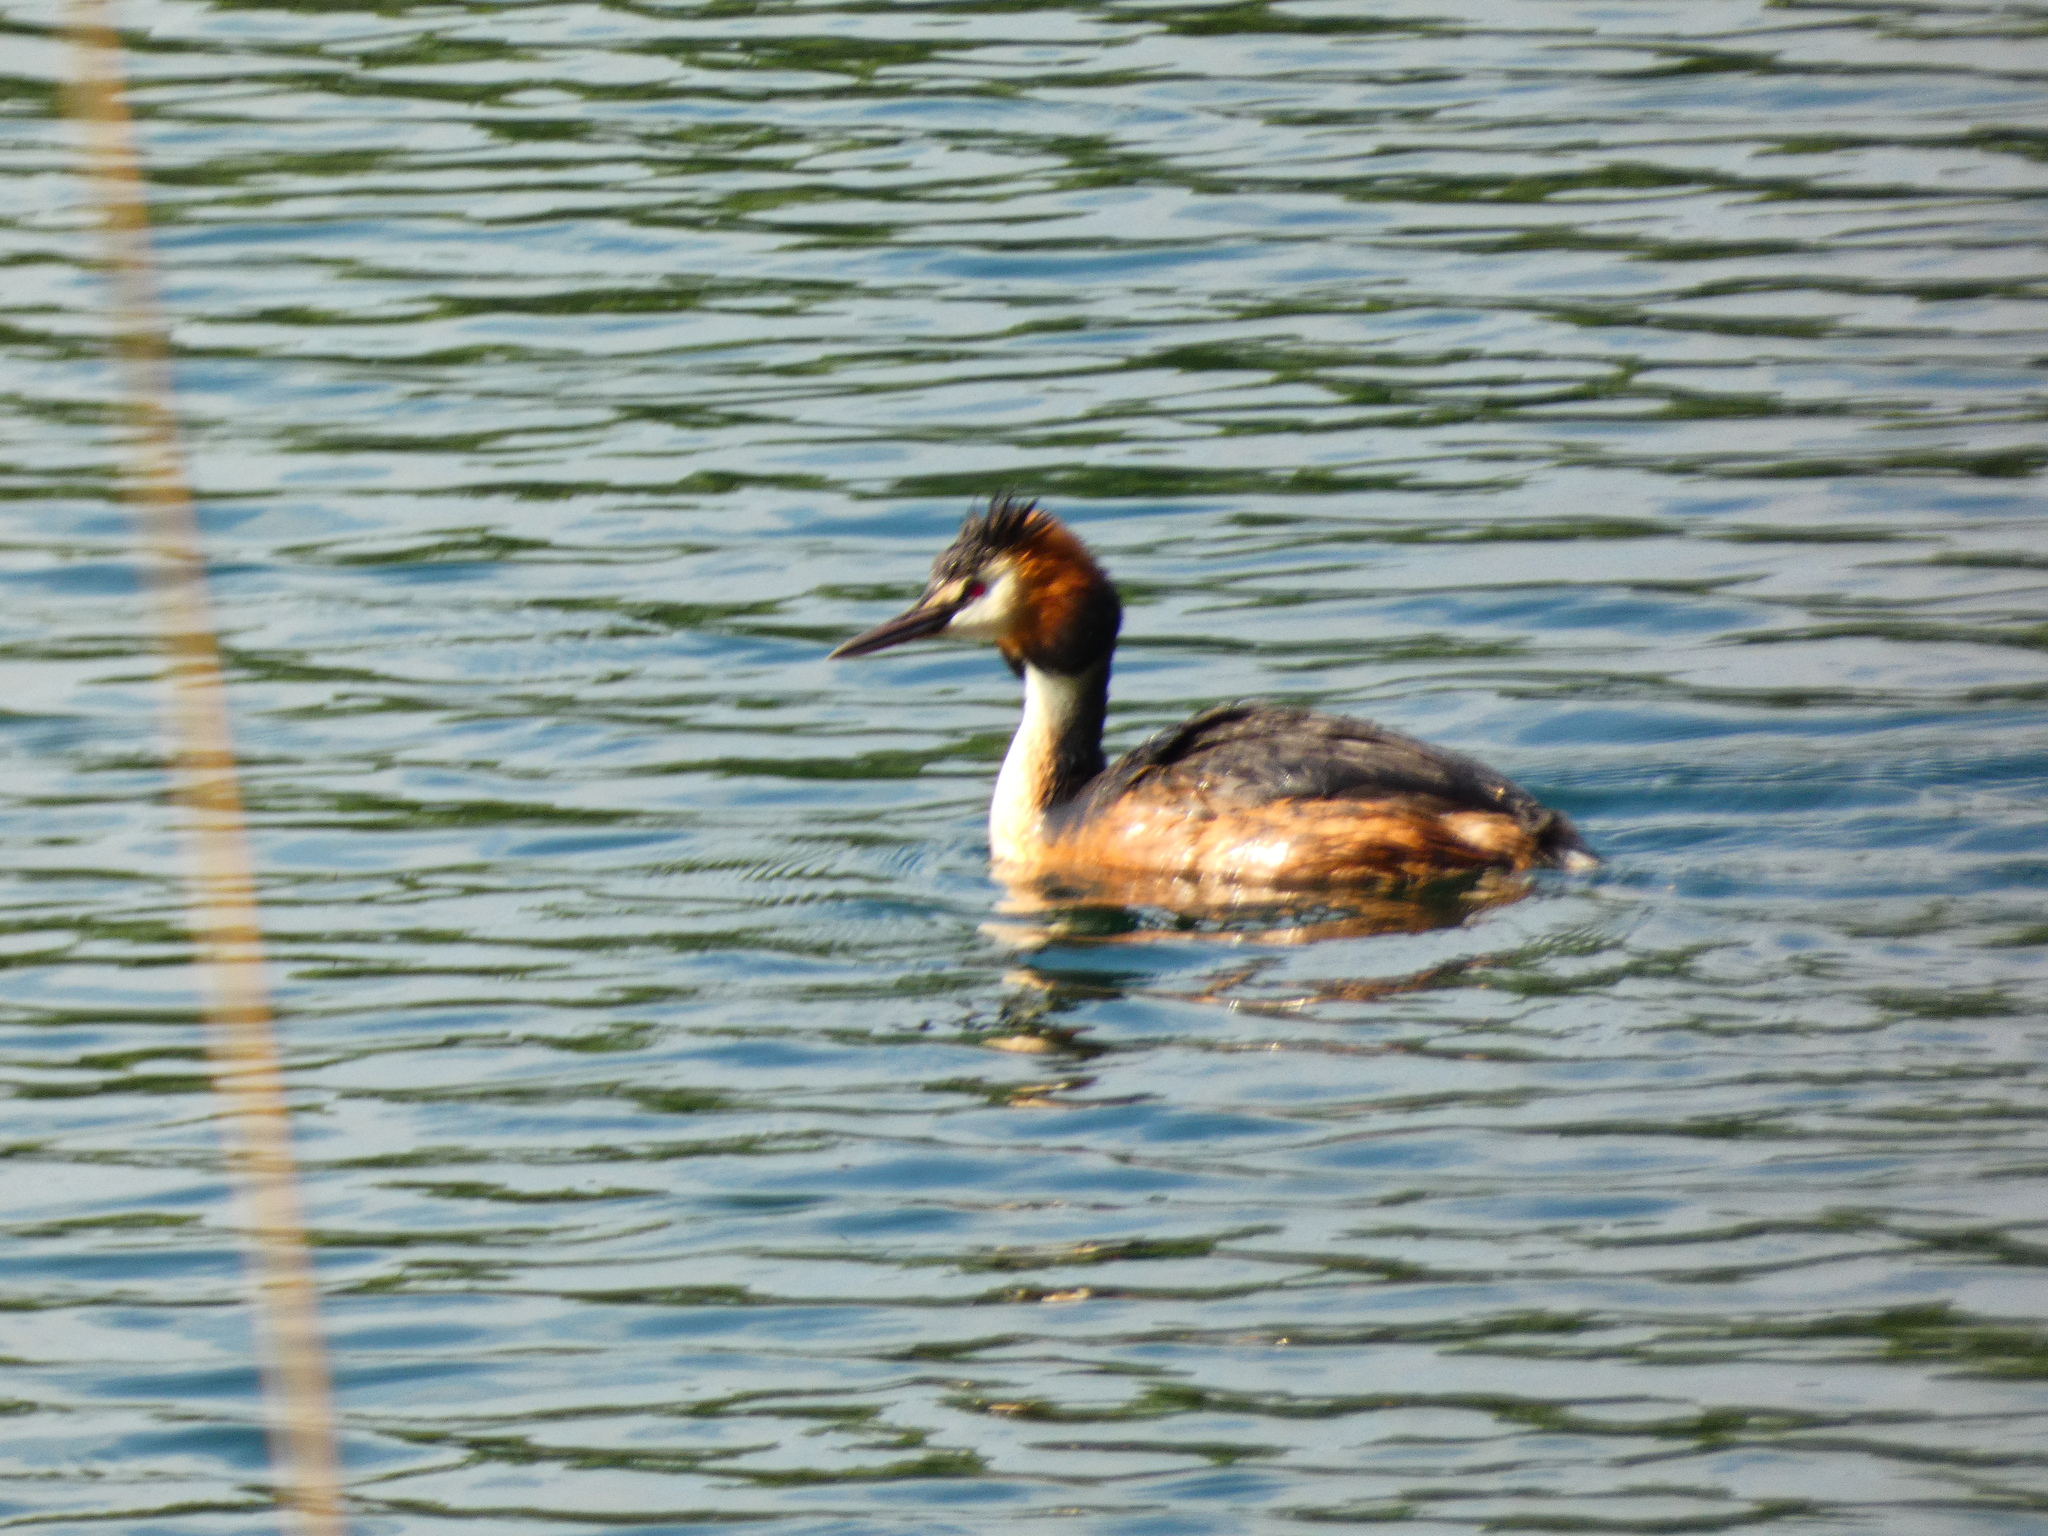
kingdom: Animalia
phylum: Chordata
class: Aves
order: Podicipediformes
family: Podicipedidae
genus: Podiceps
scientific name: Podiceps cristatus
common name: Great crested grebe
